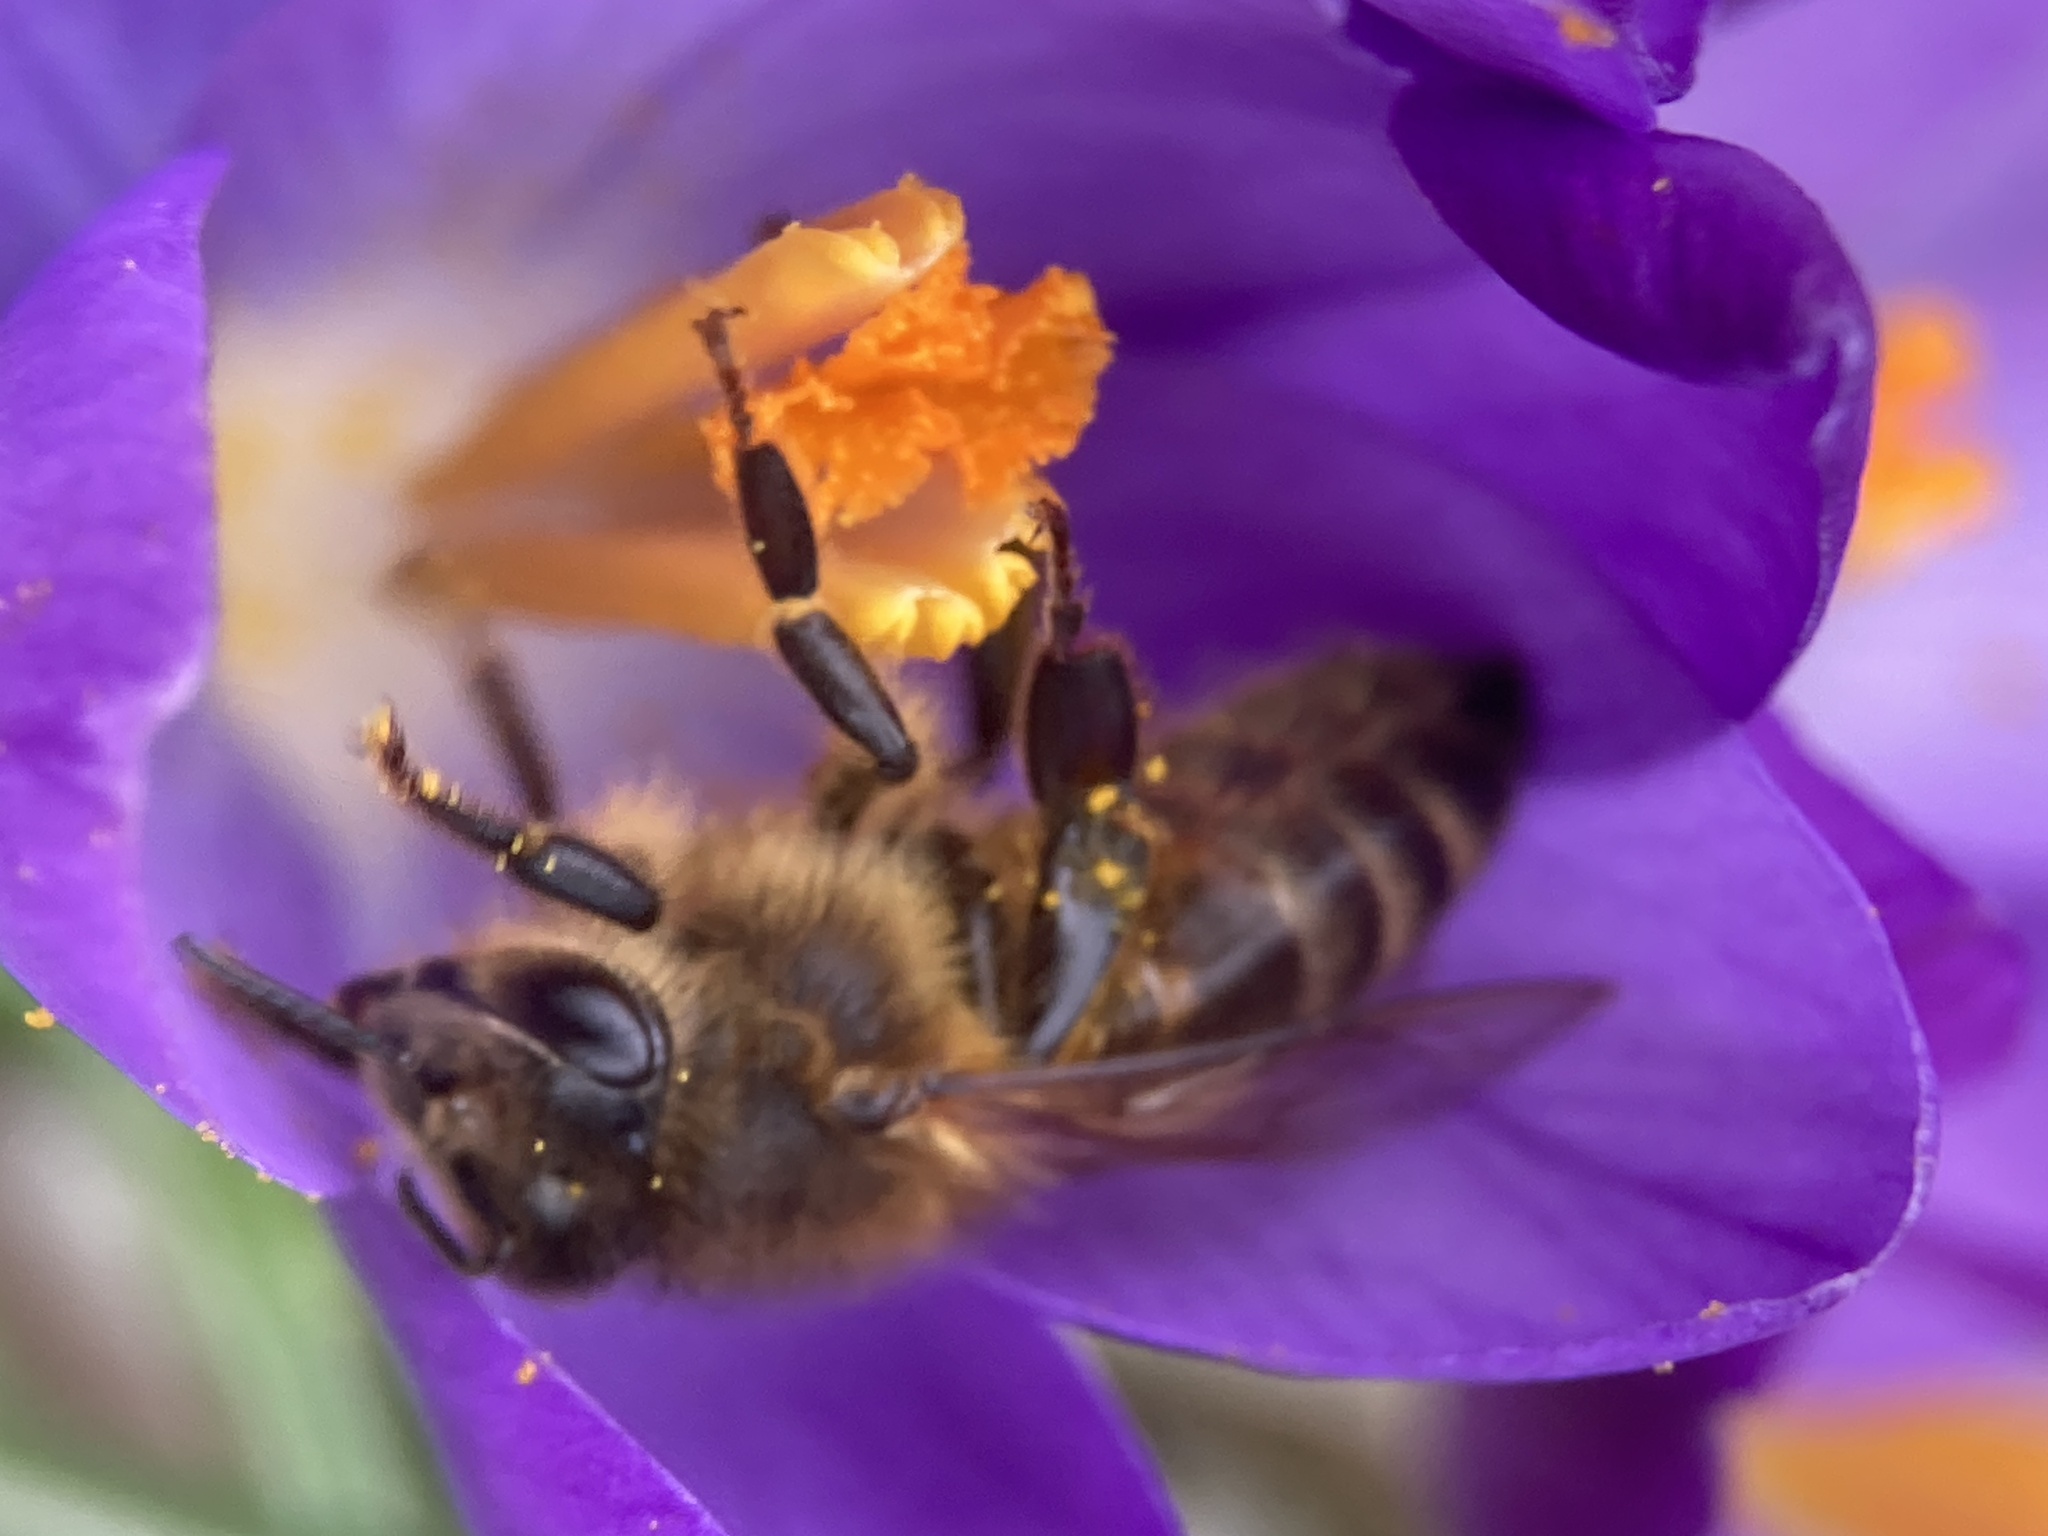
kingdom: Animalia
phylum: Arthropoda
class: Insecta
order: Hymenoptera
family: Apidae
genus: Apis
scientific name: Apis mellifera
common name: Honey bee
